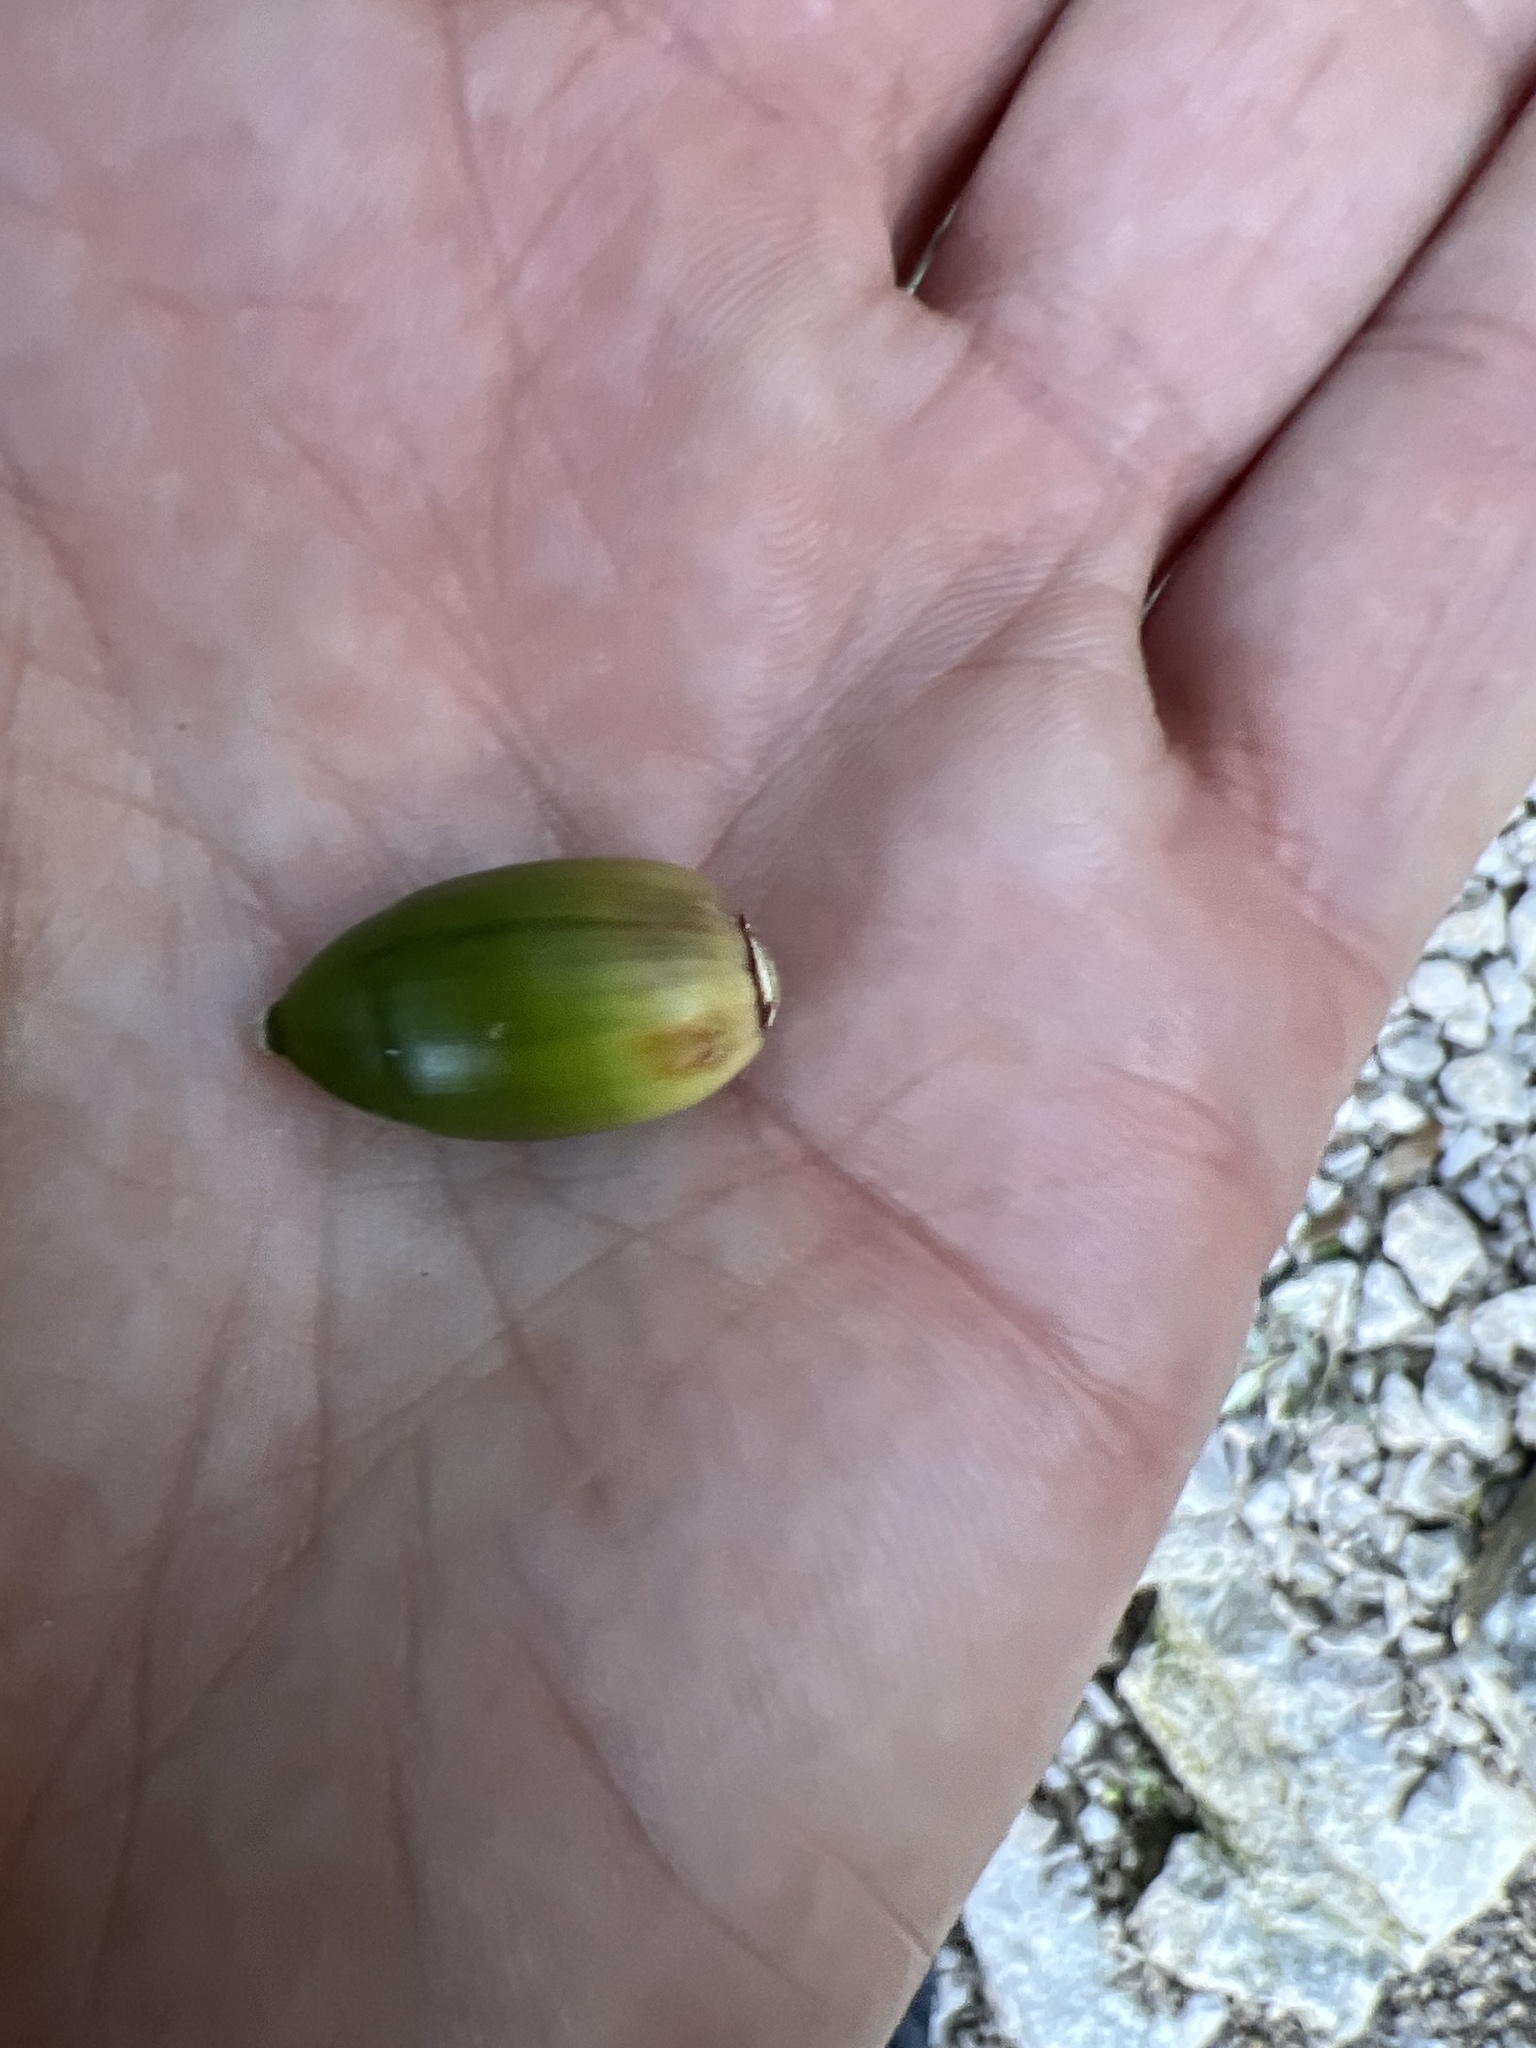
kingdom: Plantae
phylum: Tracheophyta
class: Magnoliopsida
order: Fagales
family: Fagaceae
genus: Quercus
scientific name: Quercus ilex
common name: Evergreen oak
